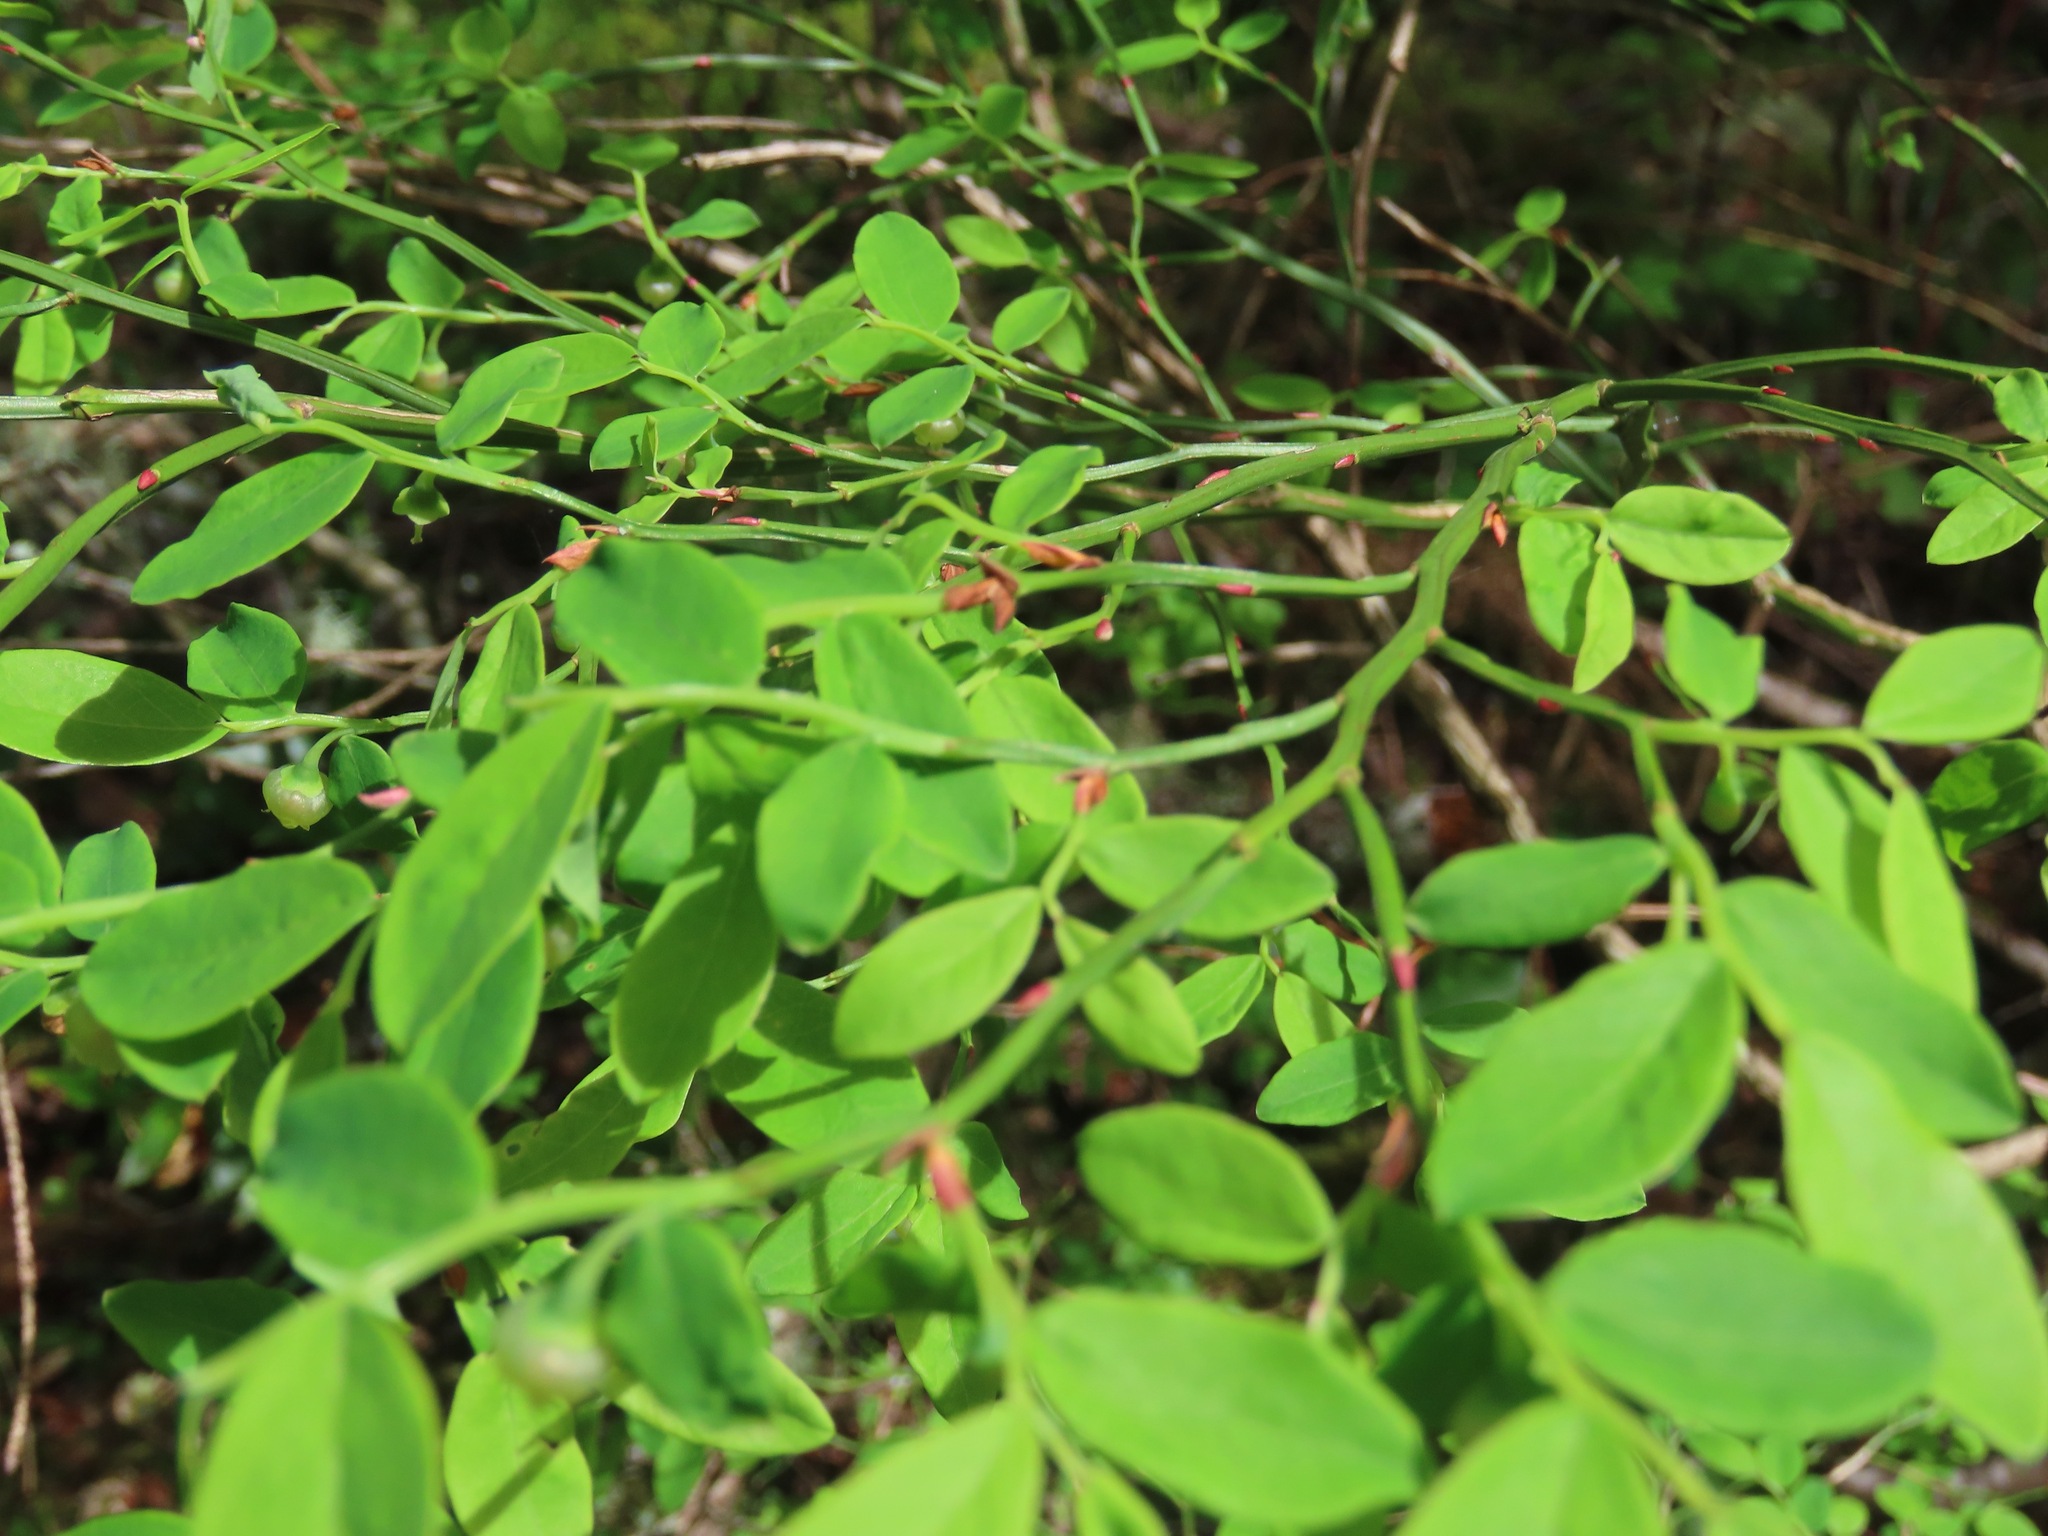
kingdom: Plantae
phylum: Tracheophyta
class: Magnoliopsida
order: Ericales
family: Ericaceae
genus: Vaccinium
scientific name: Vaccinium parvifolium
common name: Red-huckleberry
